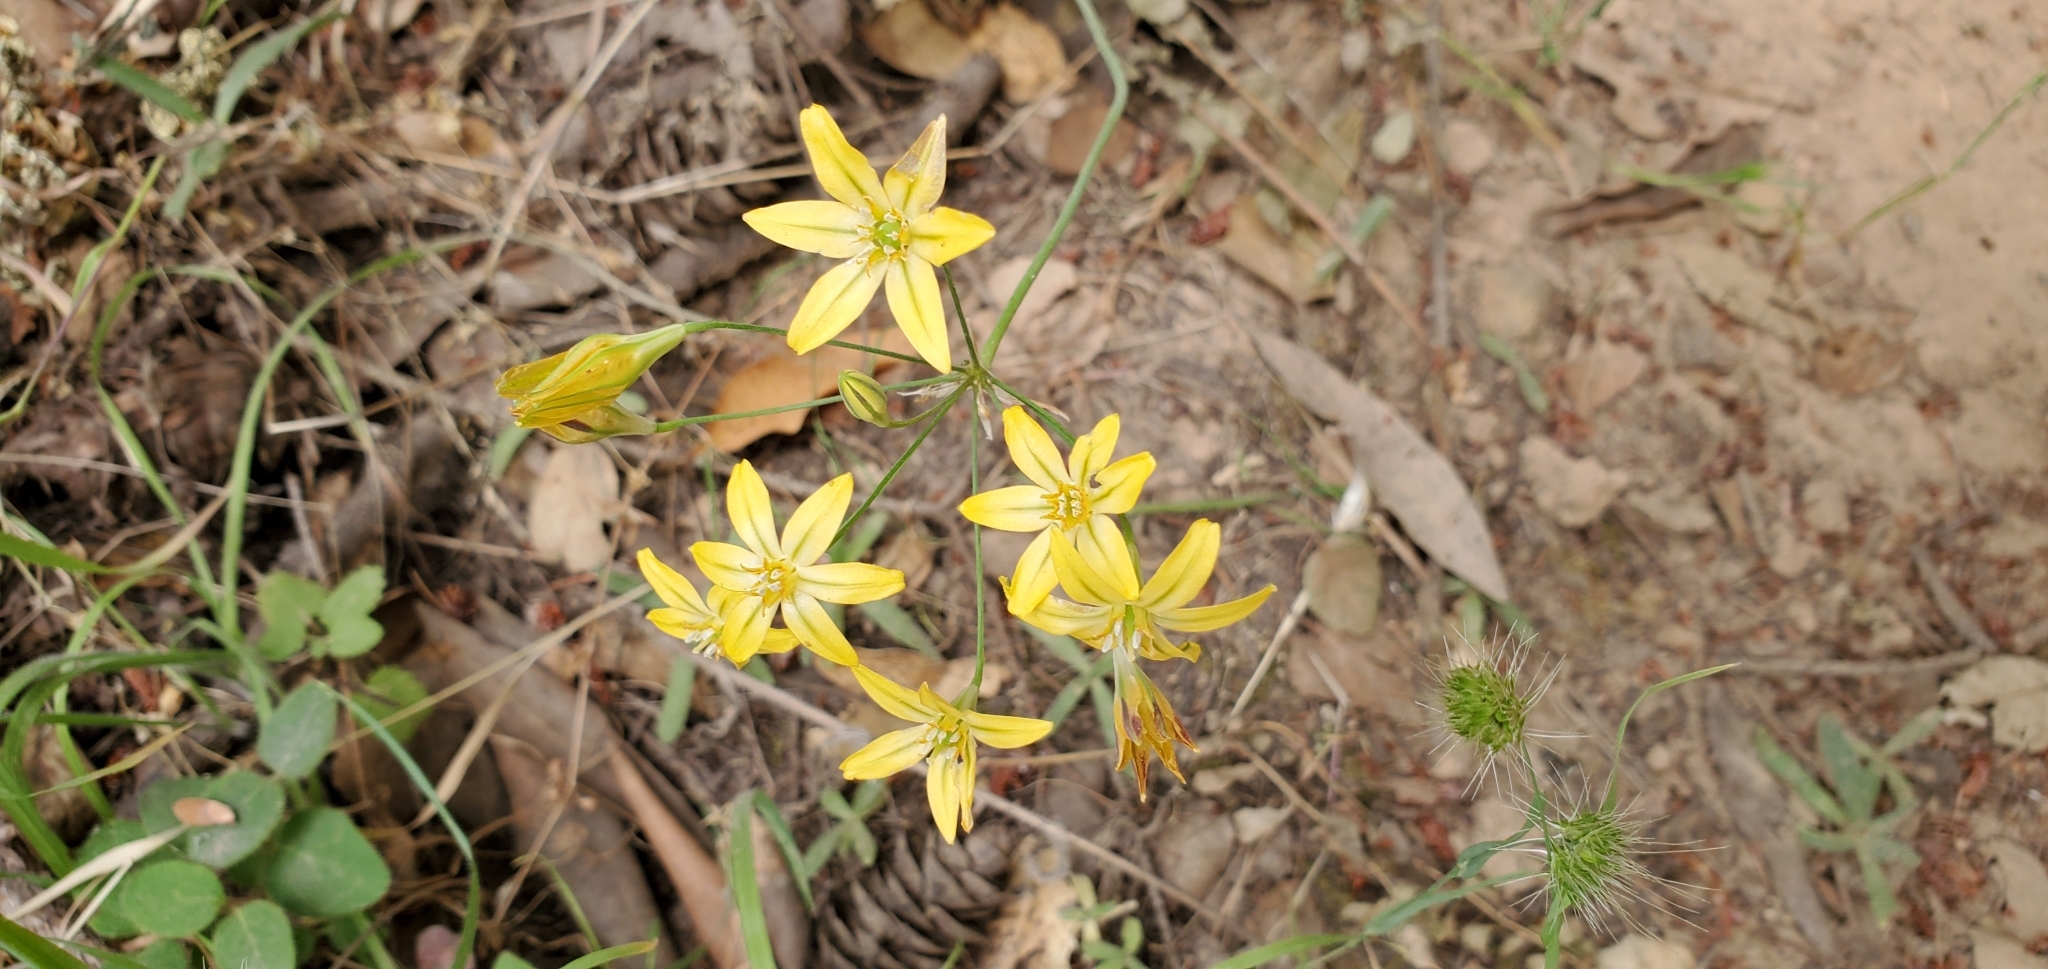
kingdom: Plantae
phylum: Tracheophyta
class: Liliopsida
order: Asparagales
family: Asparagaceae
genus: Triteleia
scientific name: Triteleia ixioides
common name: Yellow-brodiaea
